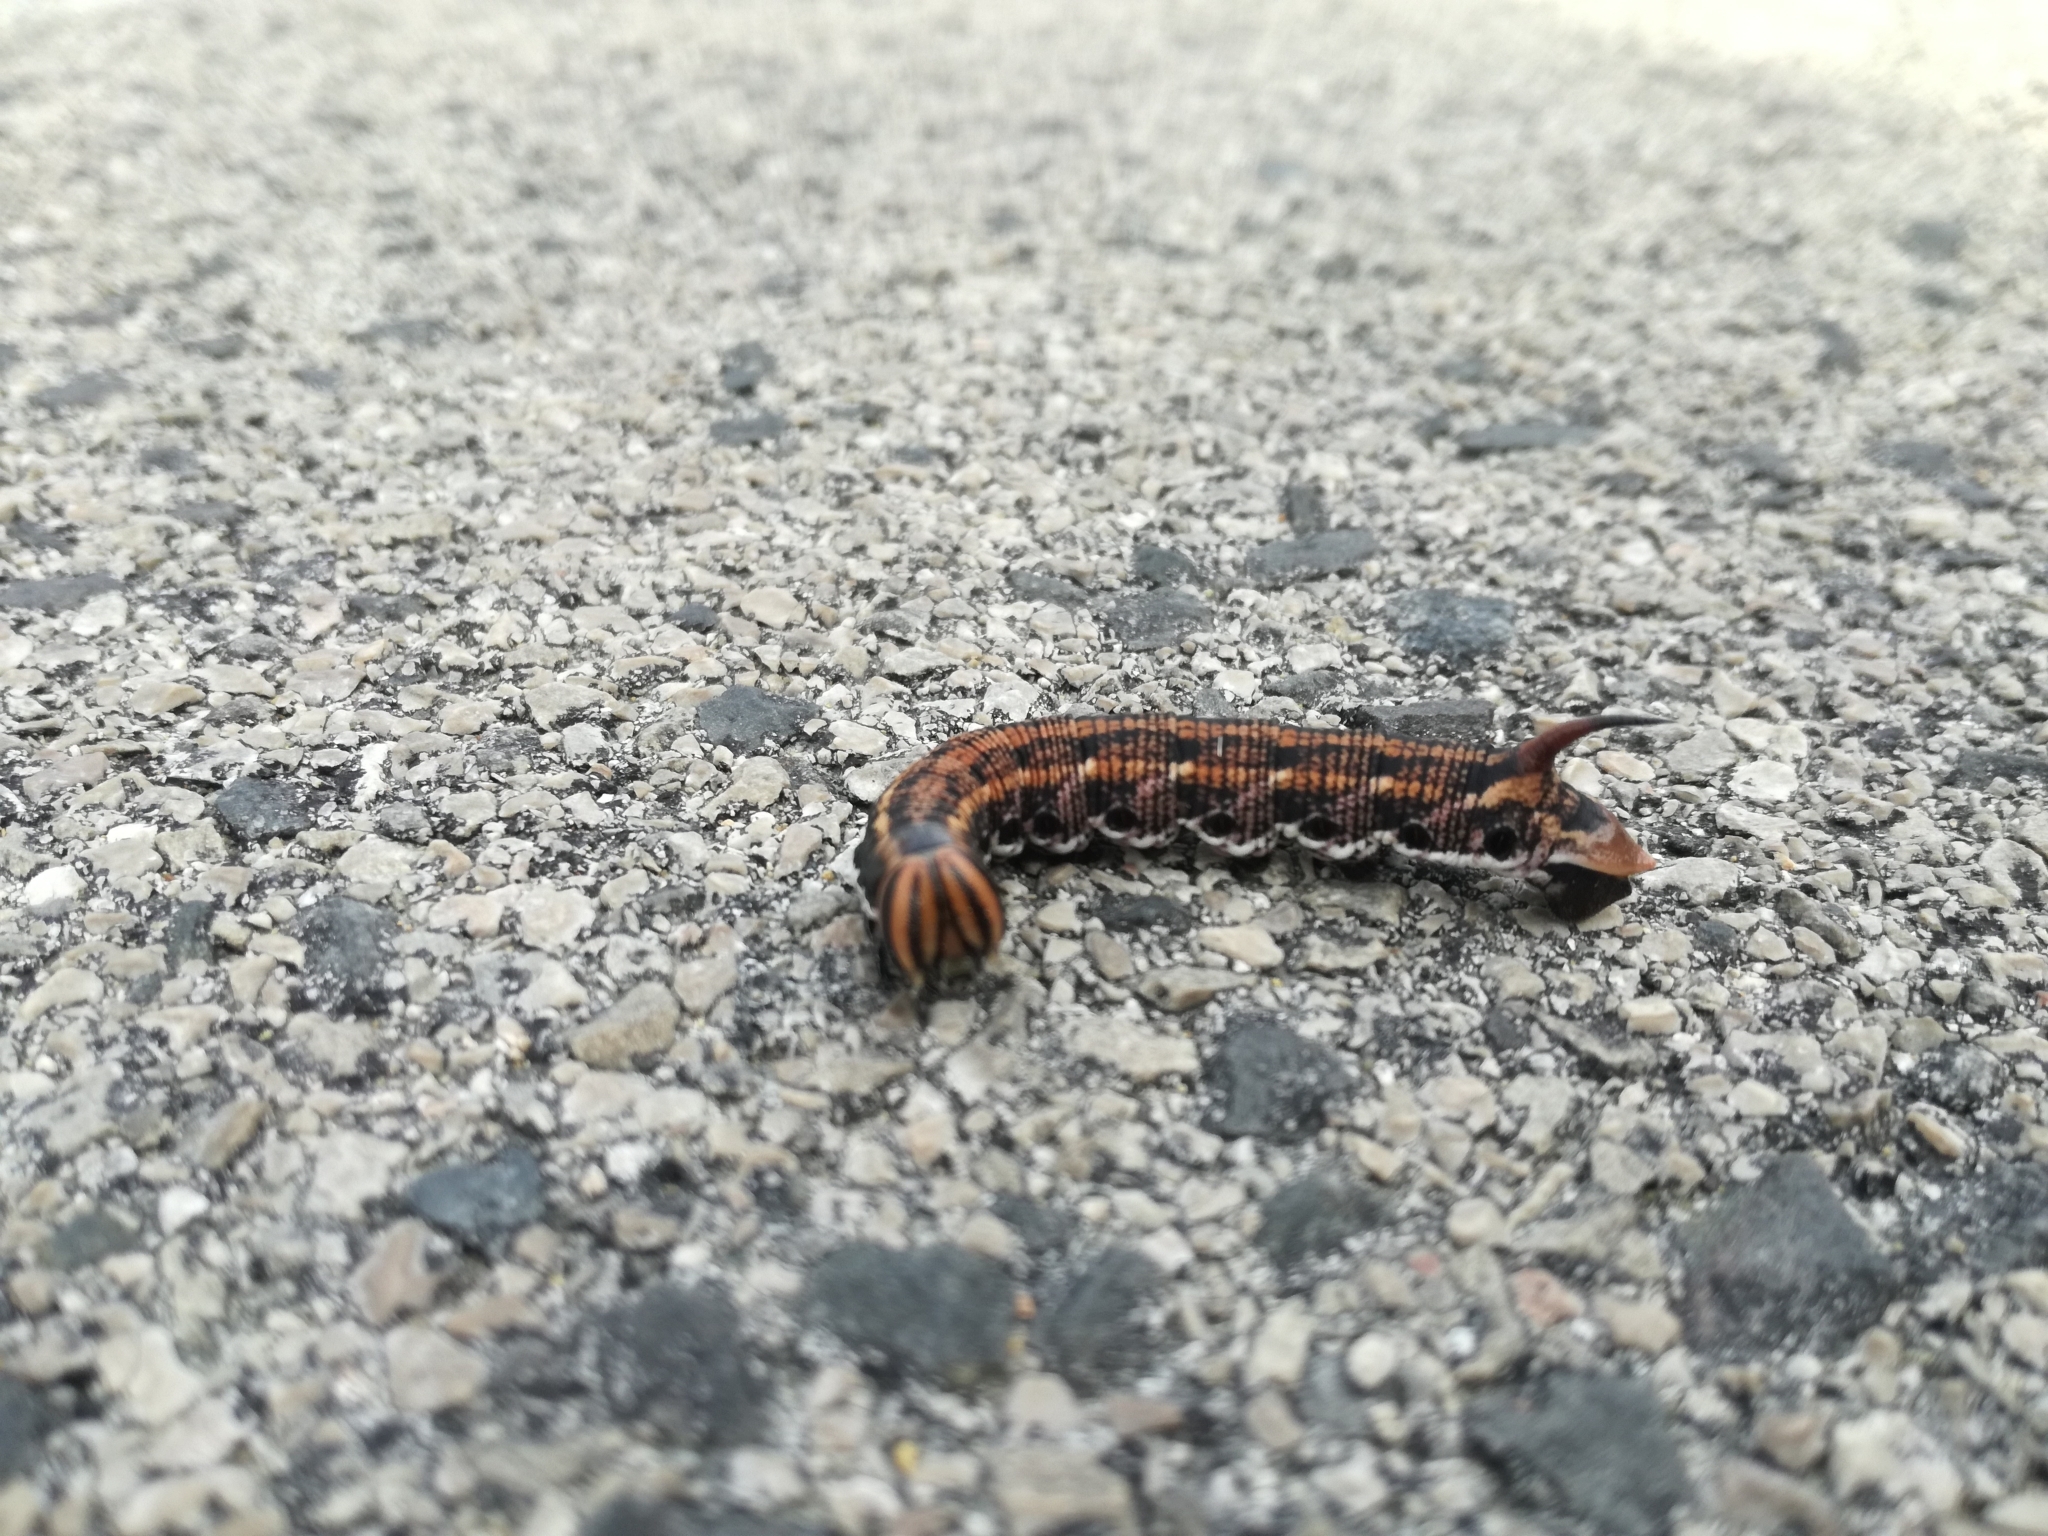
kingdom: Animalia
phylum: Arthropoda
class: Insecta
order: Lepidoptera
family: Sphingidae
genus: Agrius
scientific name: Agrius convolvuli
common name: Convolvulus hawkmoth
